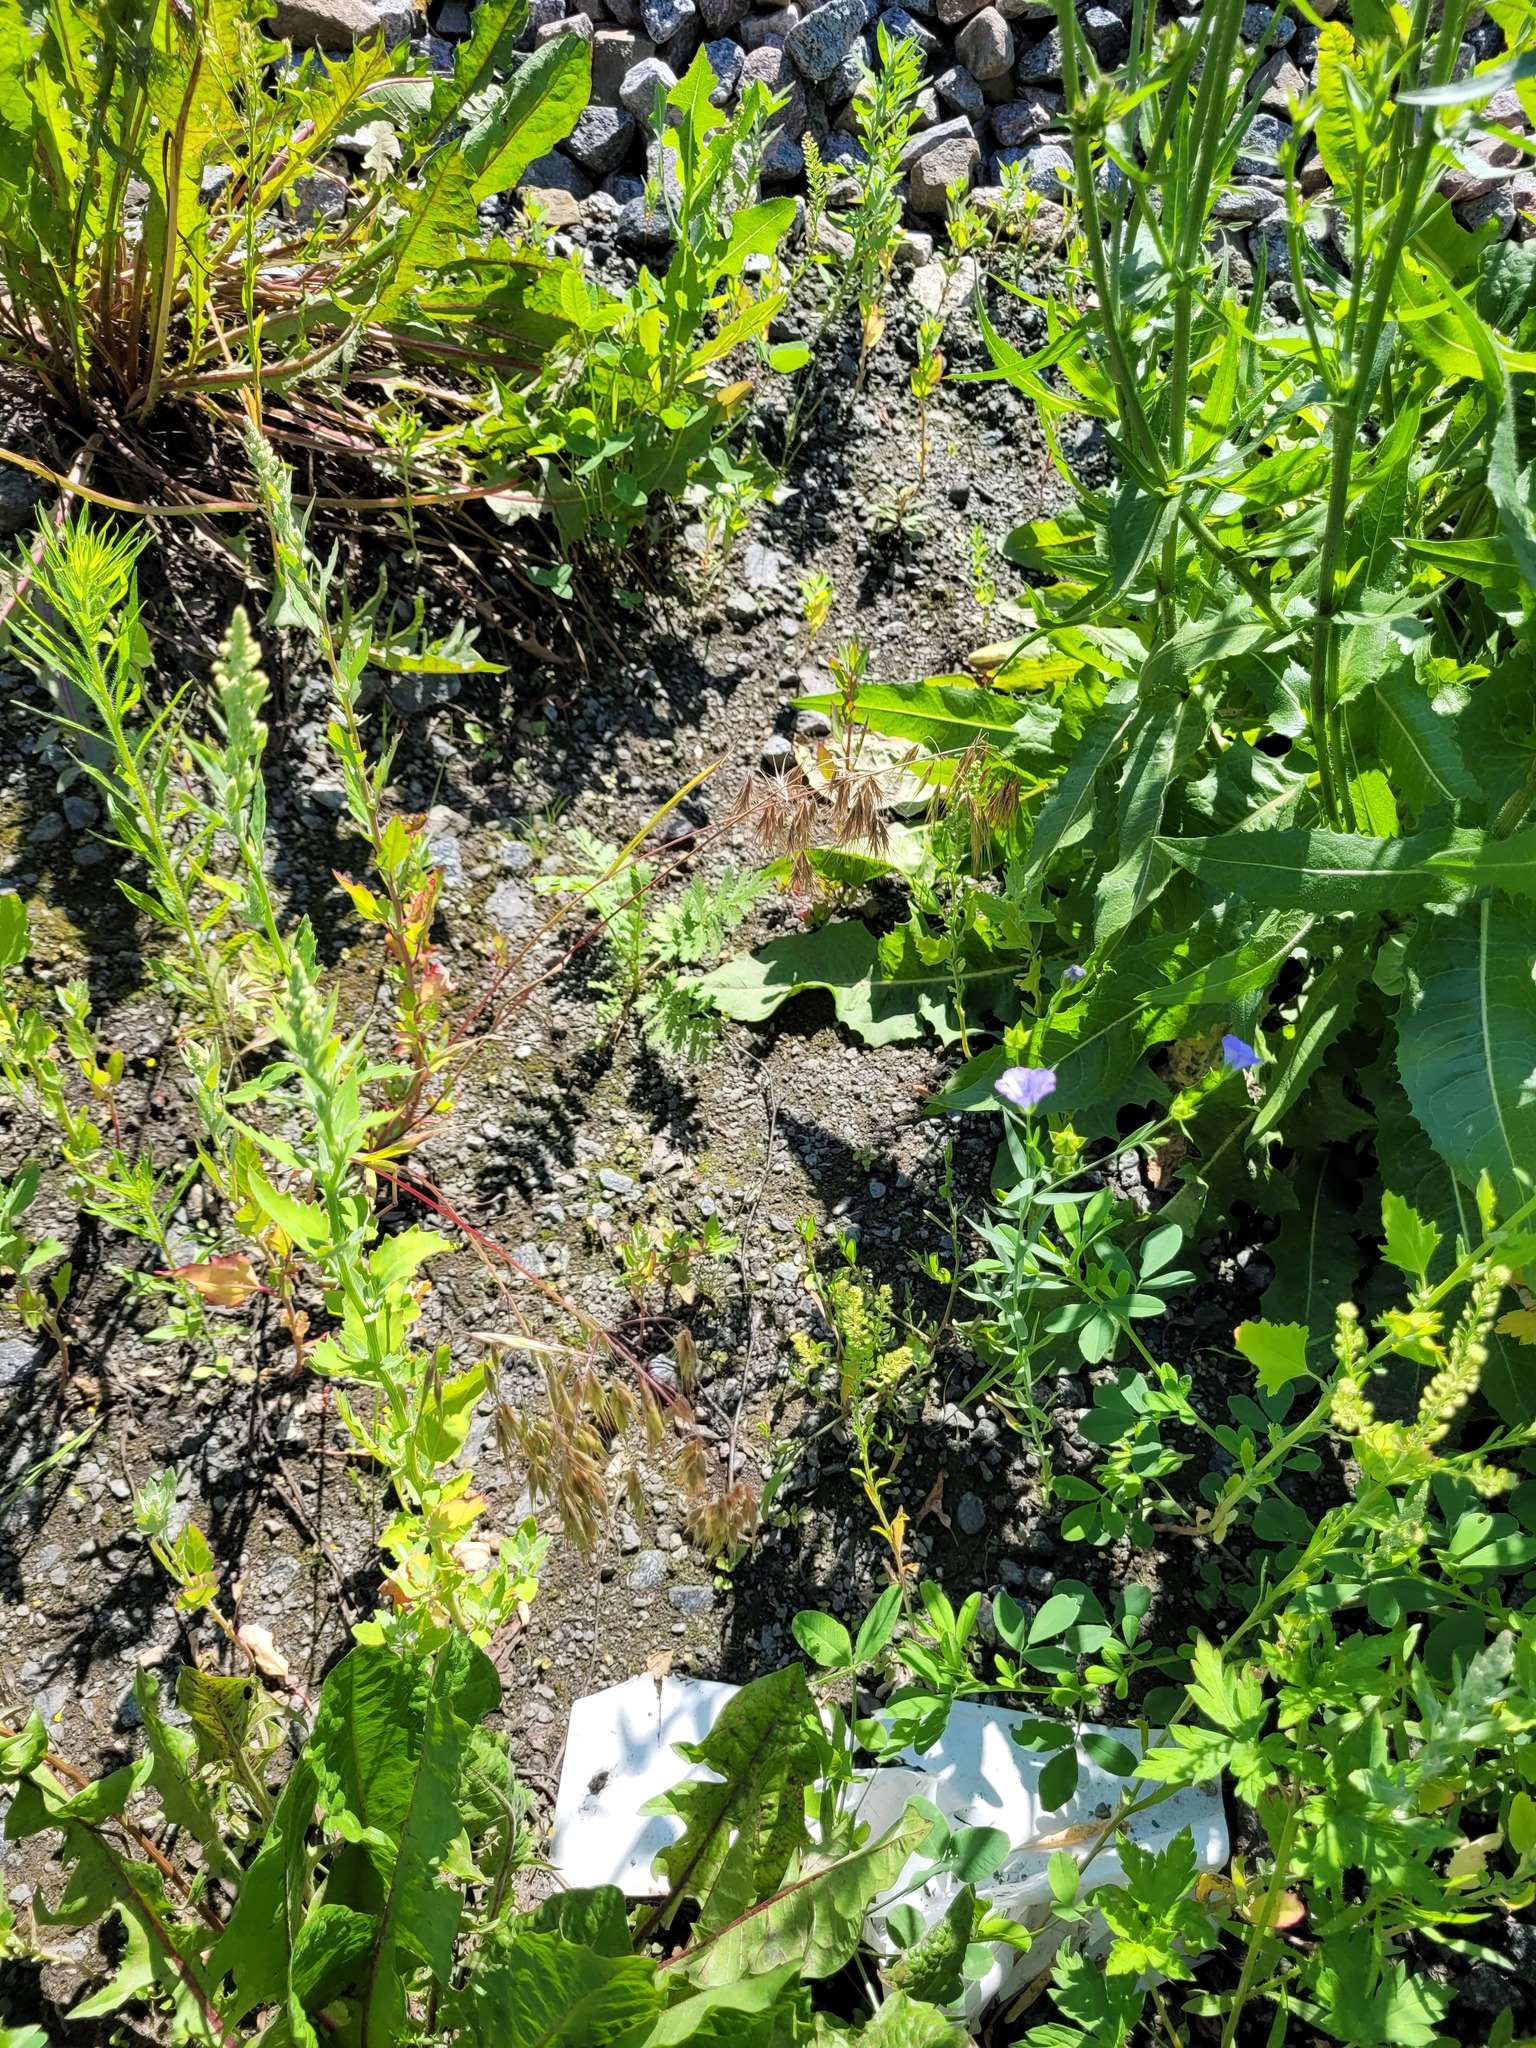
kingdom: Plantae
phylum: Tracheophyta
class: Liliopsida
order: Poales
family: Poaceae
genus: Bromus
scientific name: Bromus tectorum
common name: Cheatgrass
